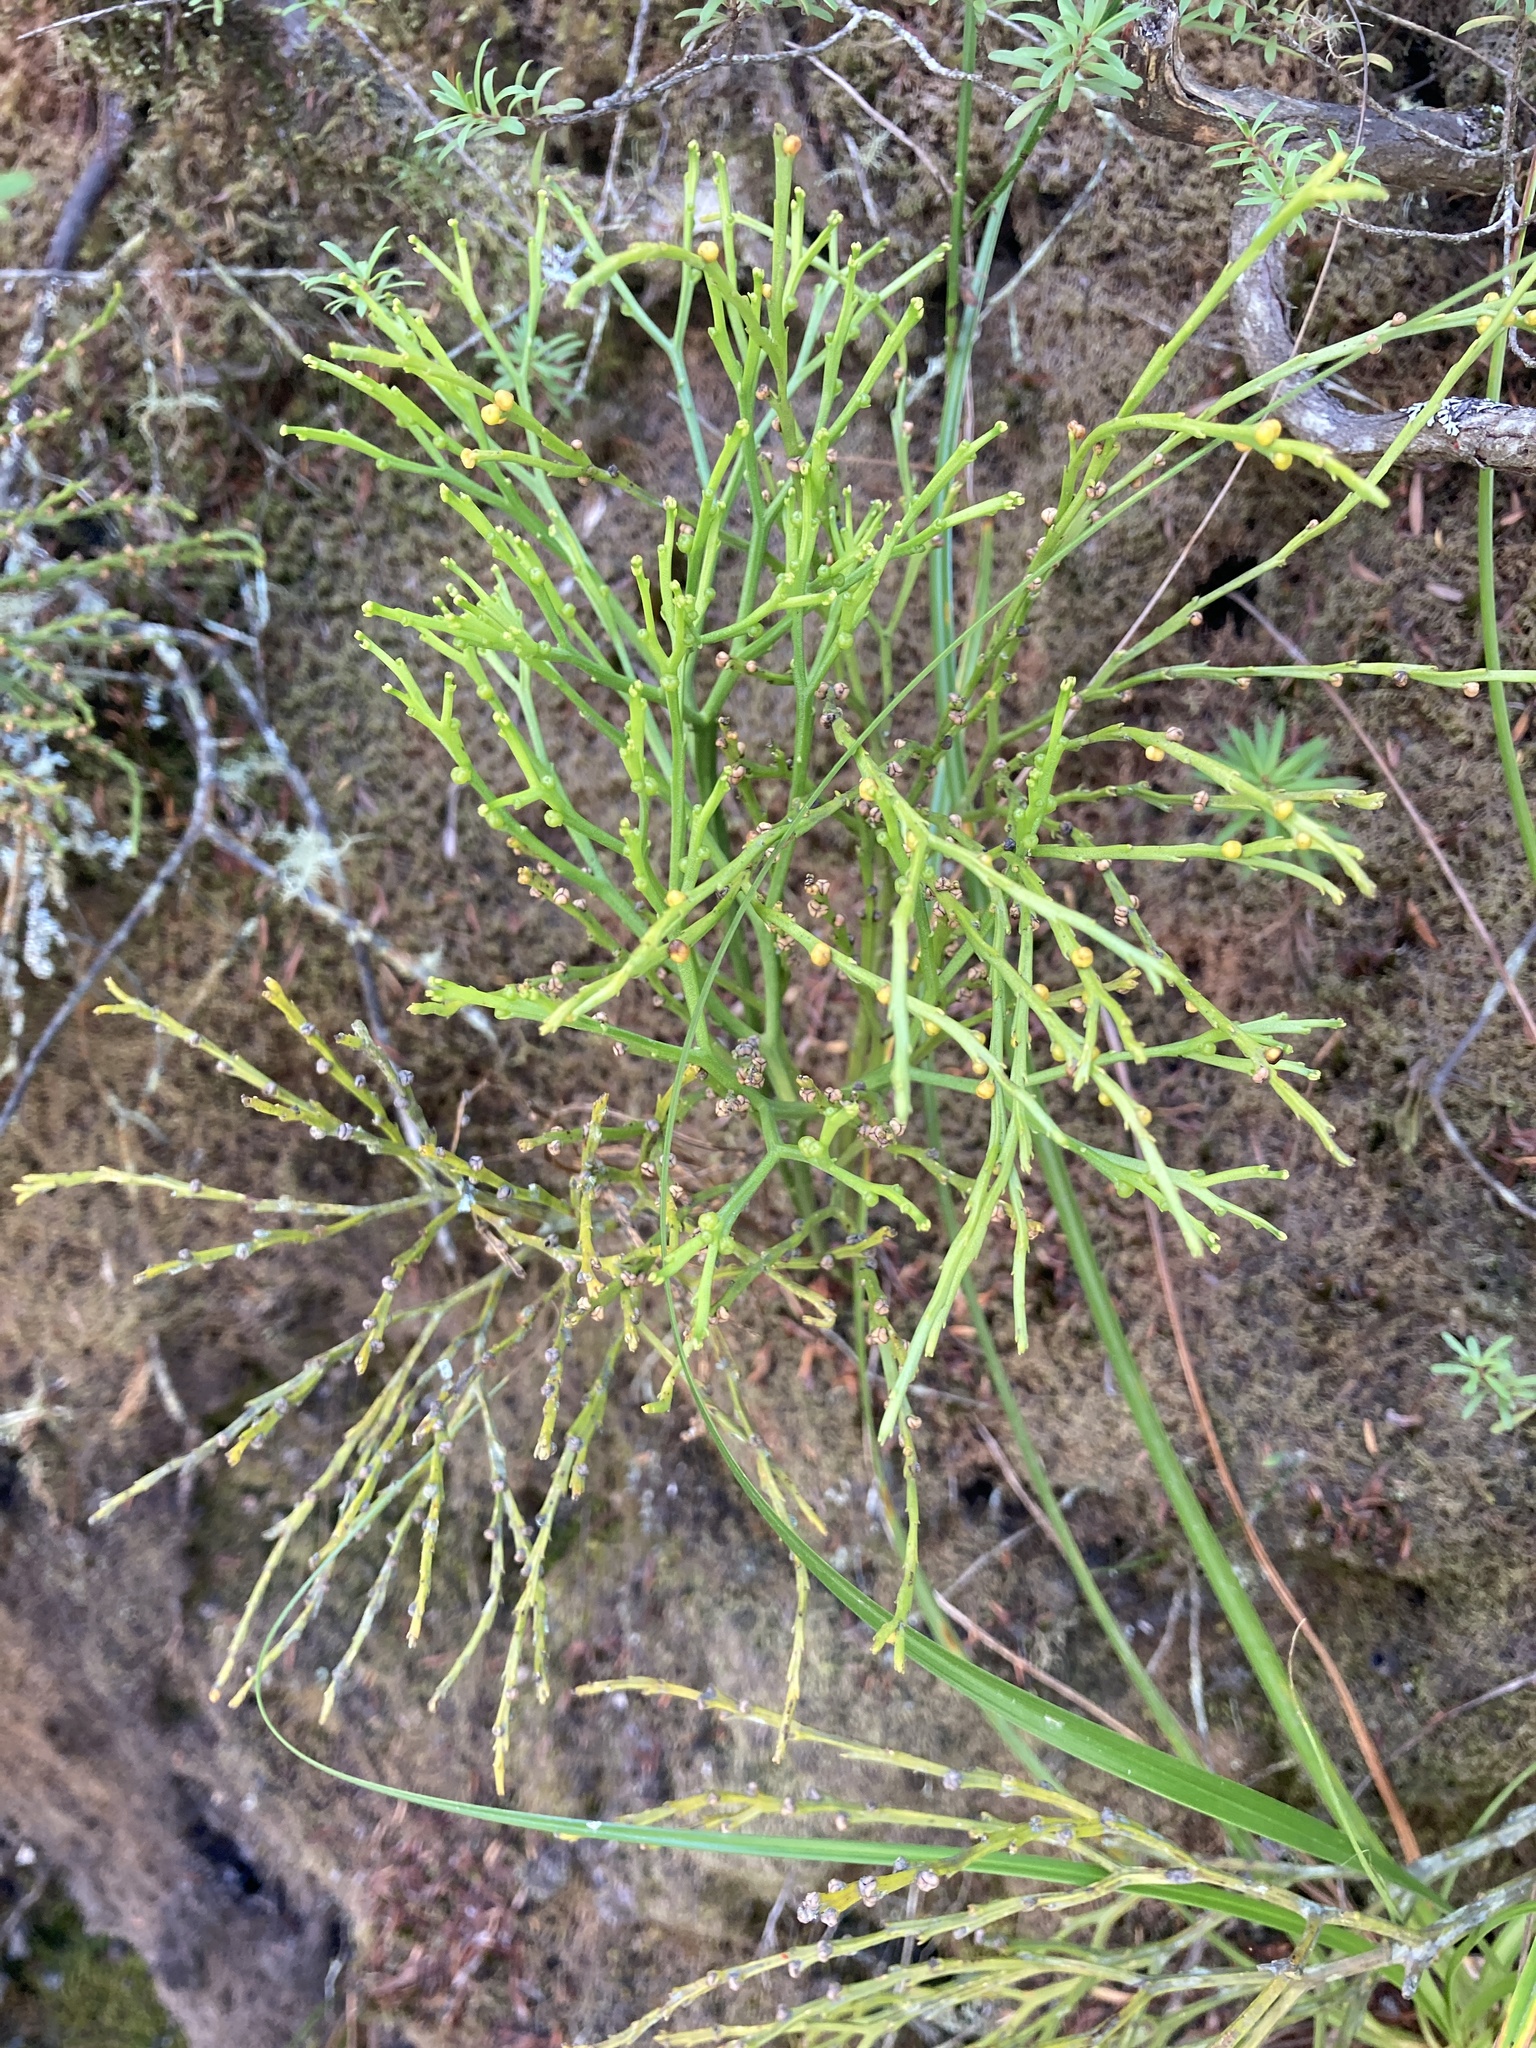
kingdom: Plantae
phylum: Tracheophyta
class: Polypodiopsida
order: Psilotales
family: Psilotaceae
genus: Psilotum
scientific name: Psilotum nudum
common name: Skeleton fork fern
